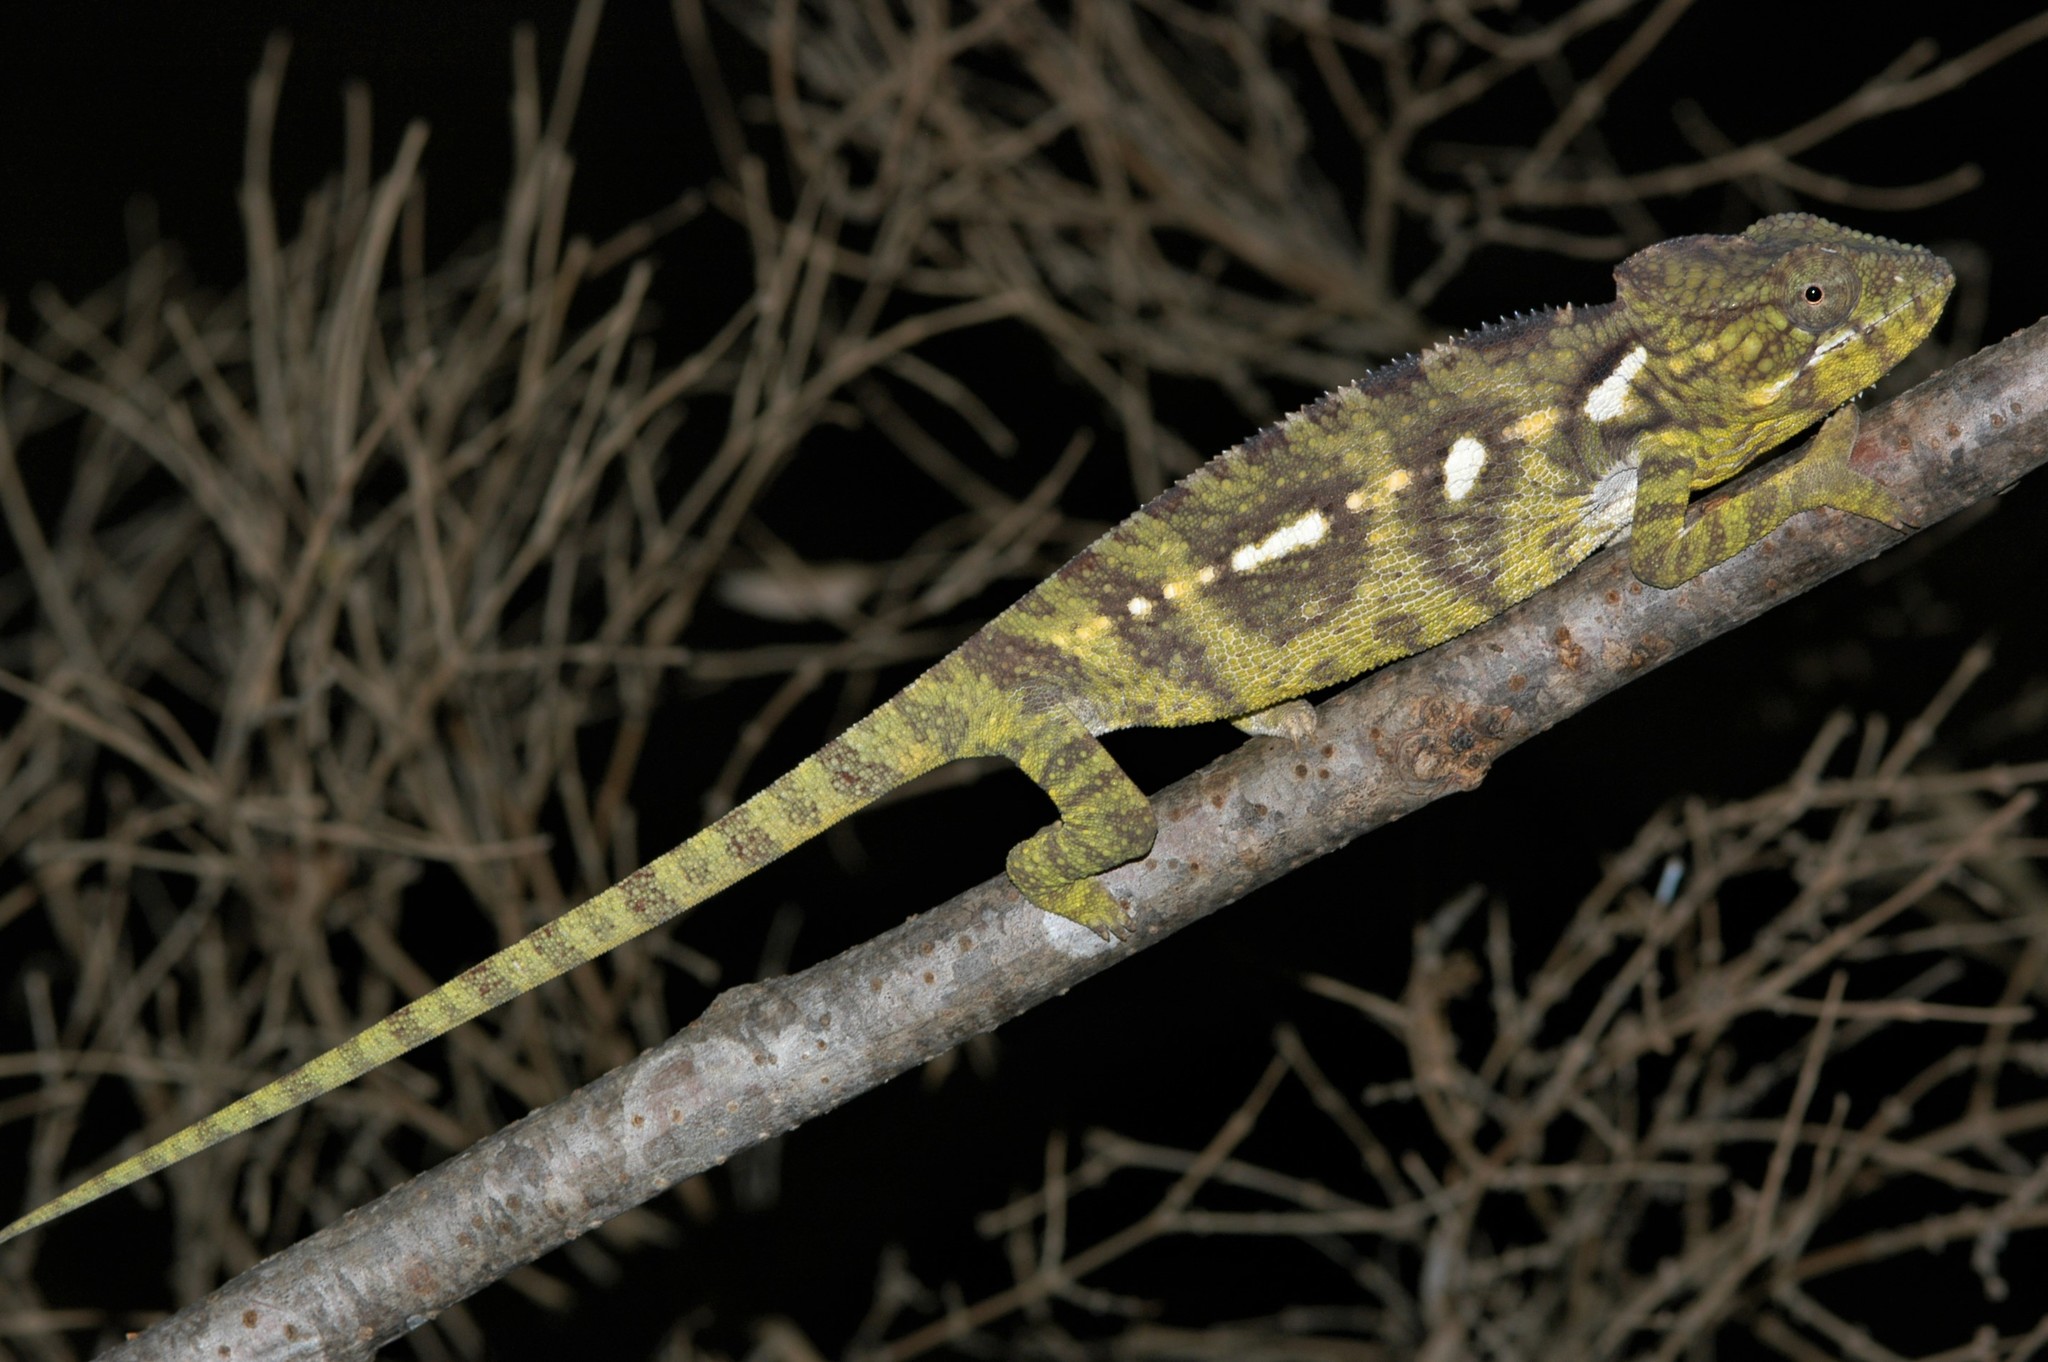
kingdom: Animalia
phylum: Chordata
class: Squamata
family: Chamaeleonidae
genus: Furcifer
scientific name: Furcifer oustaleti
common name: Oustalet's chameleon
